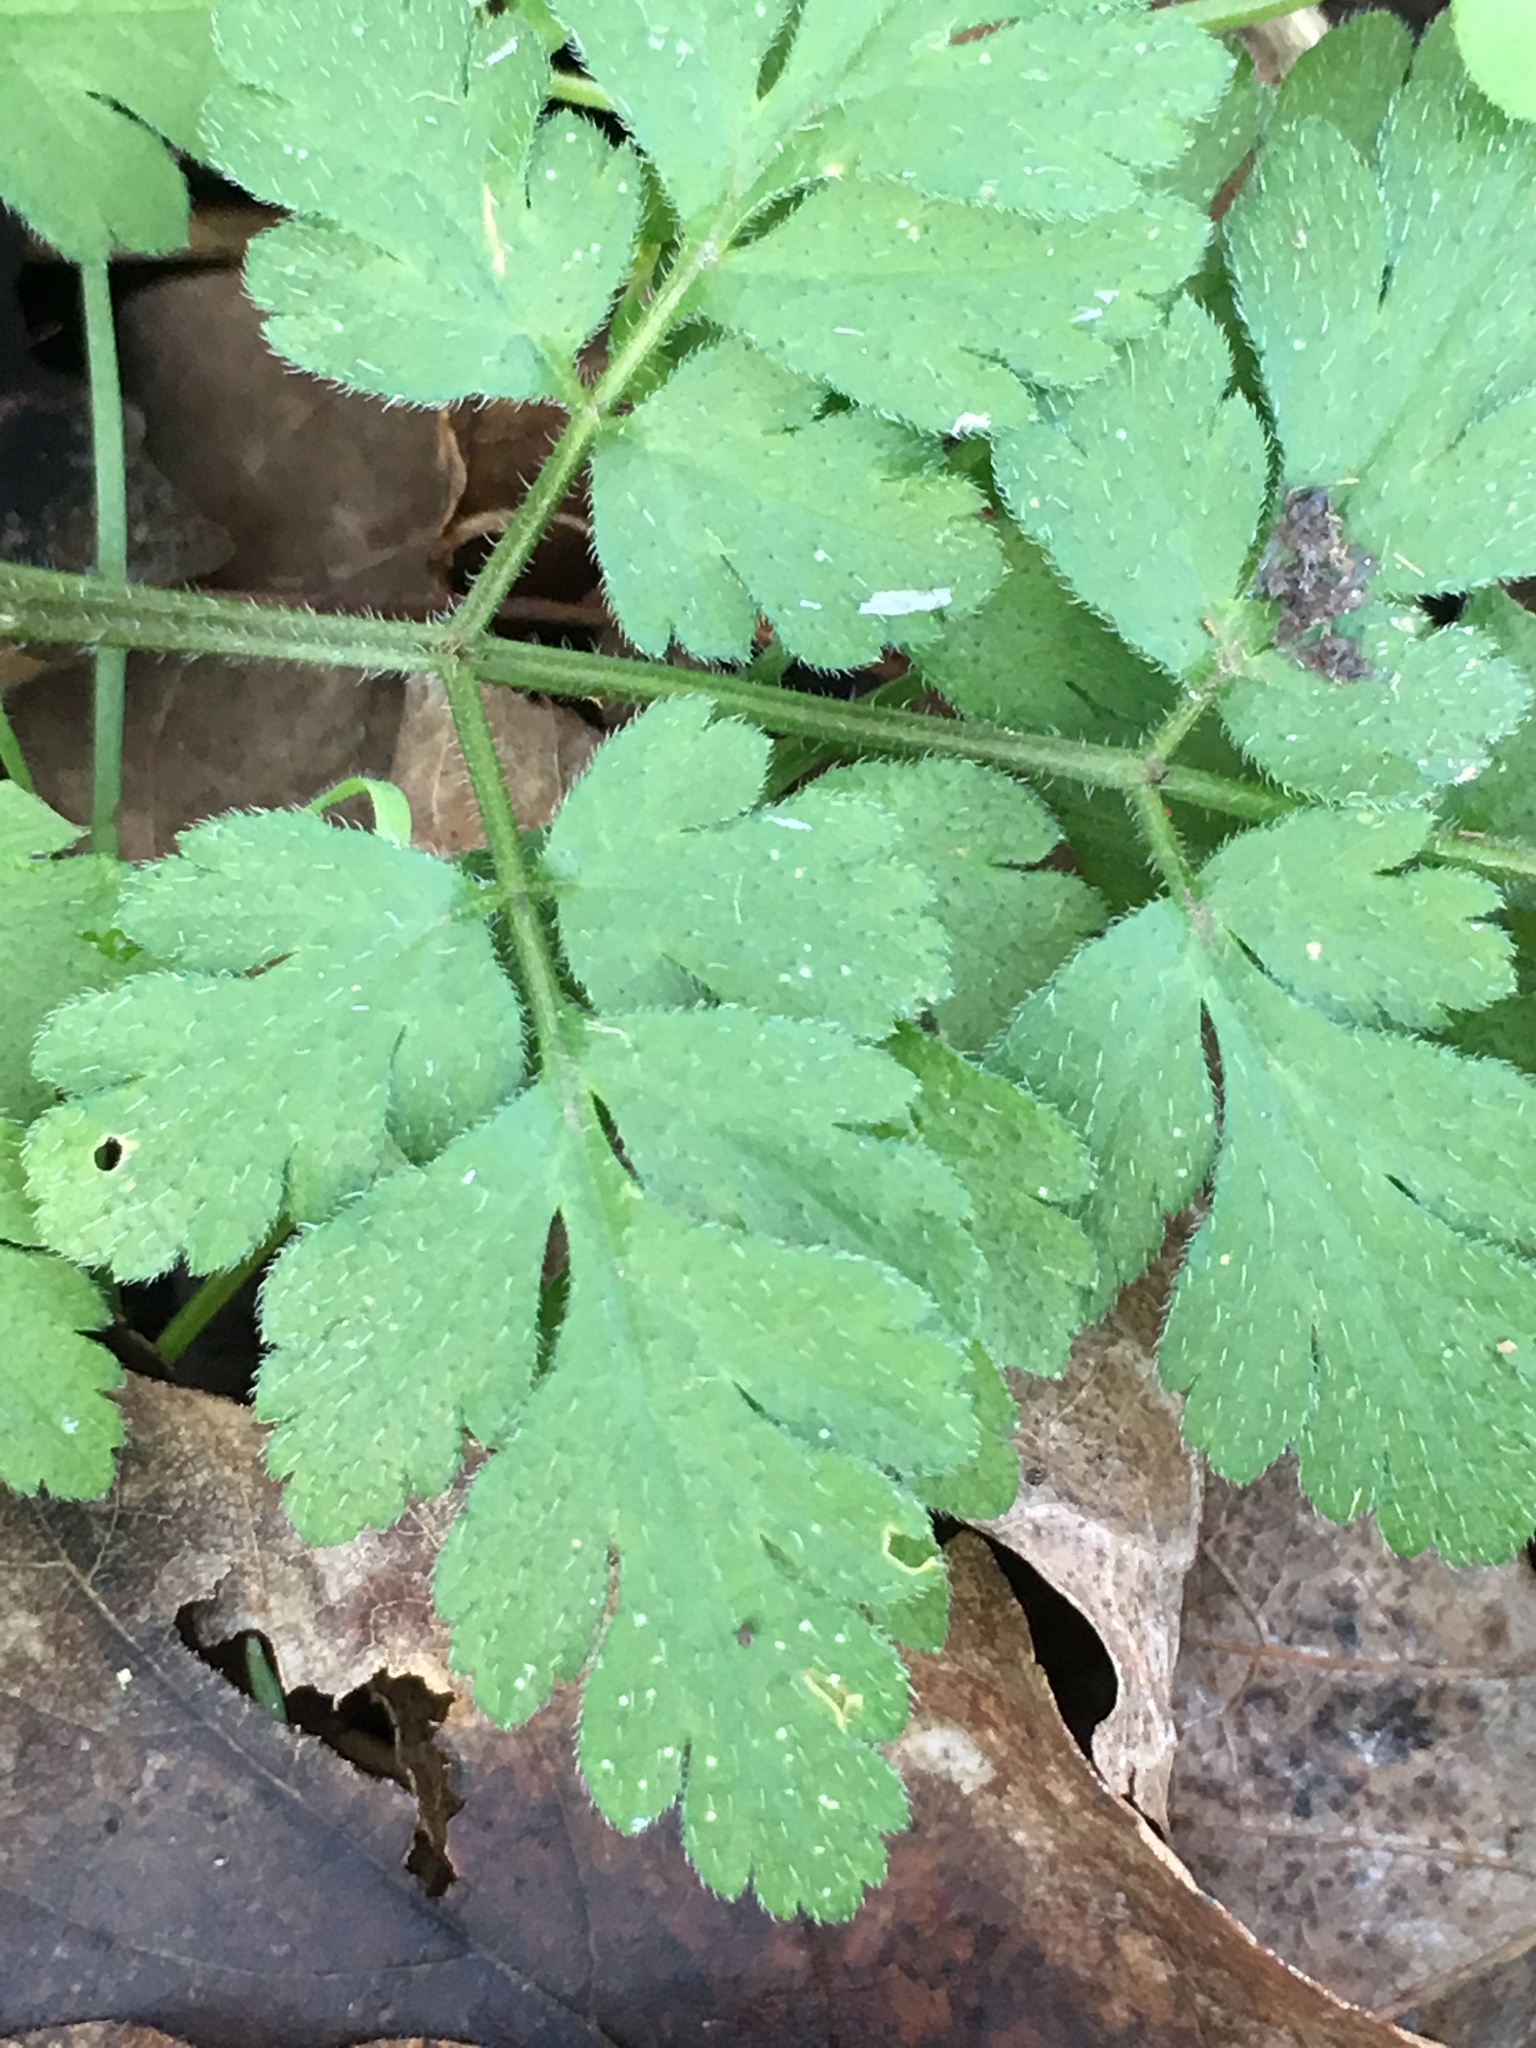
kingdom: Plantae
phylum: Tracheophyta
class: Magnoliopsida
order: Apiales
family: Apiaceae
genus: Chaerophyllum
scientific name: Chaerophyllum temulum
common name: Rough chervil
